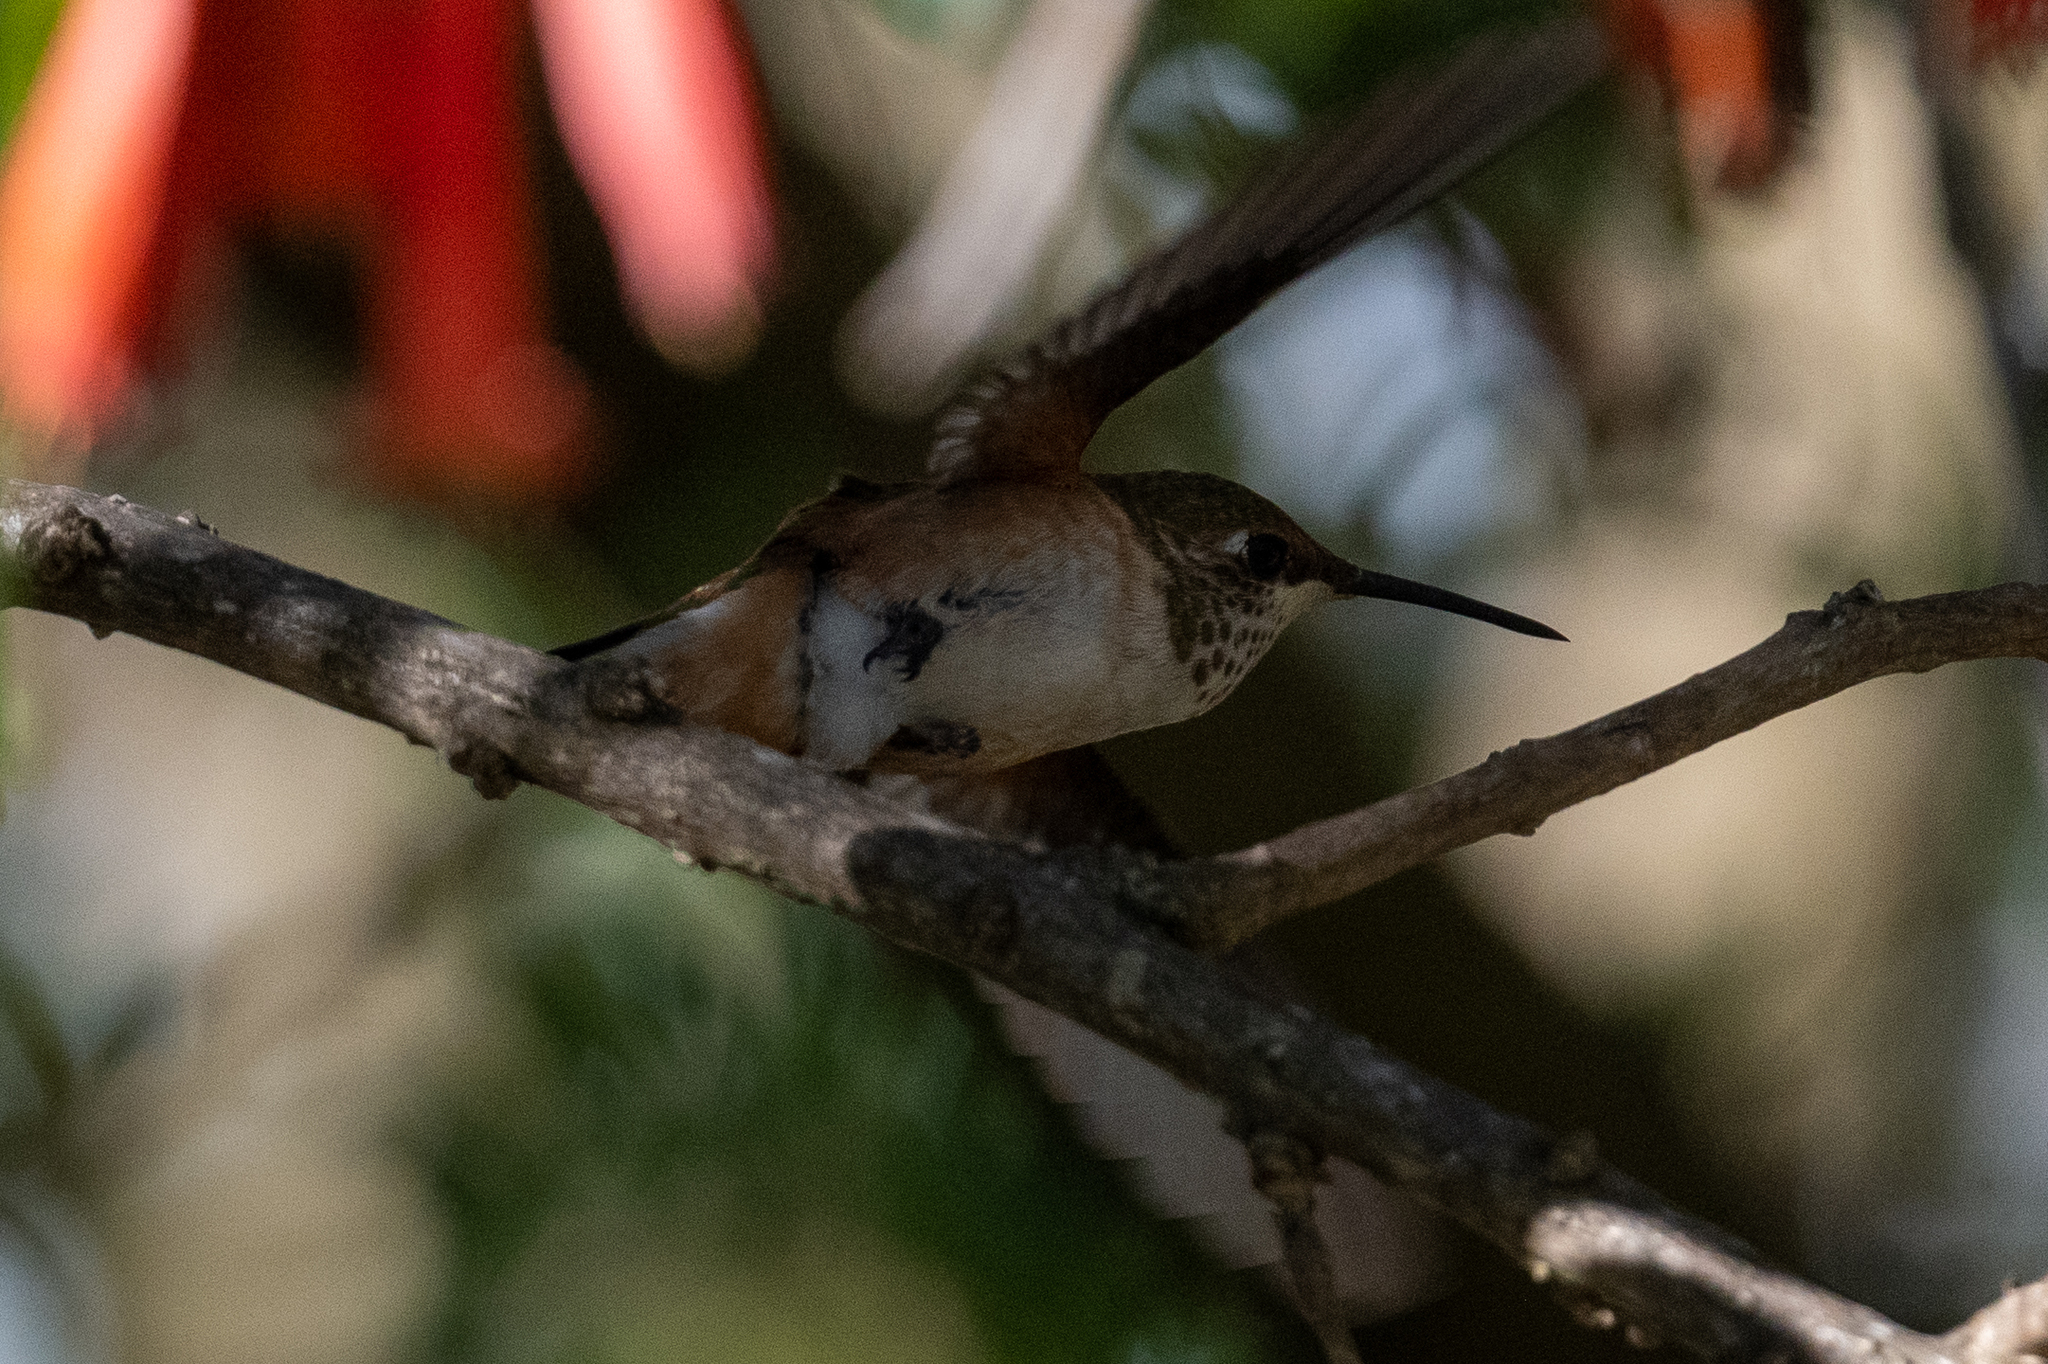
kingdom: Animalia
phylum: Chordata
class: Aves
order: Apodiformes
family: Trochilidae
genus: Selasphorus
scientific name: Selasphorus
